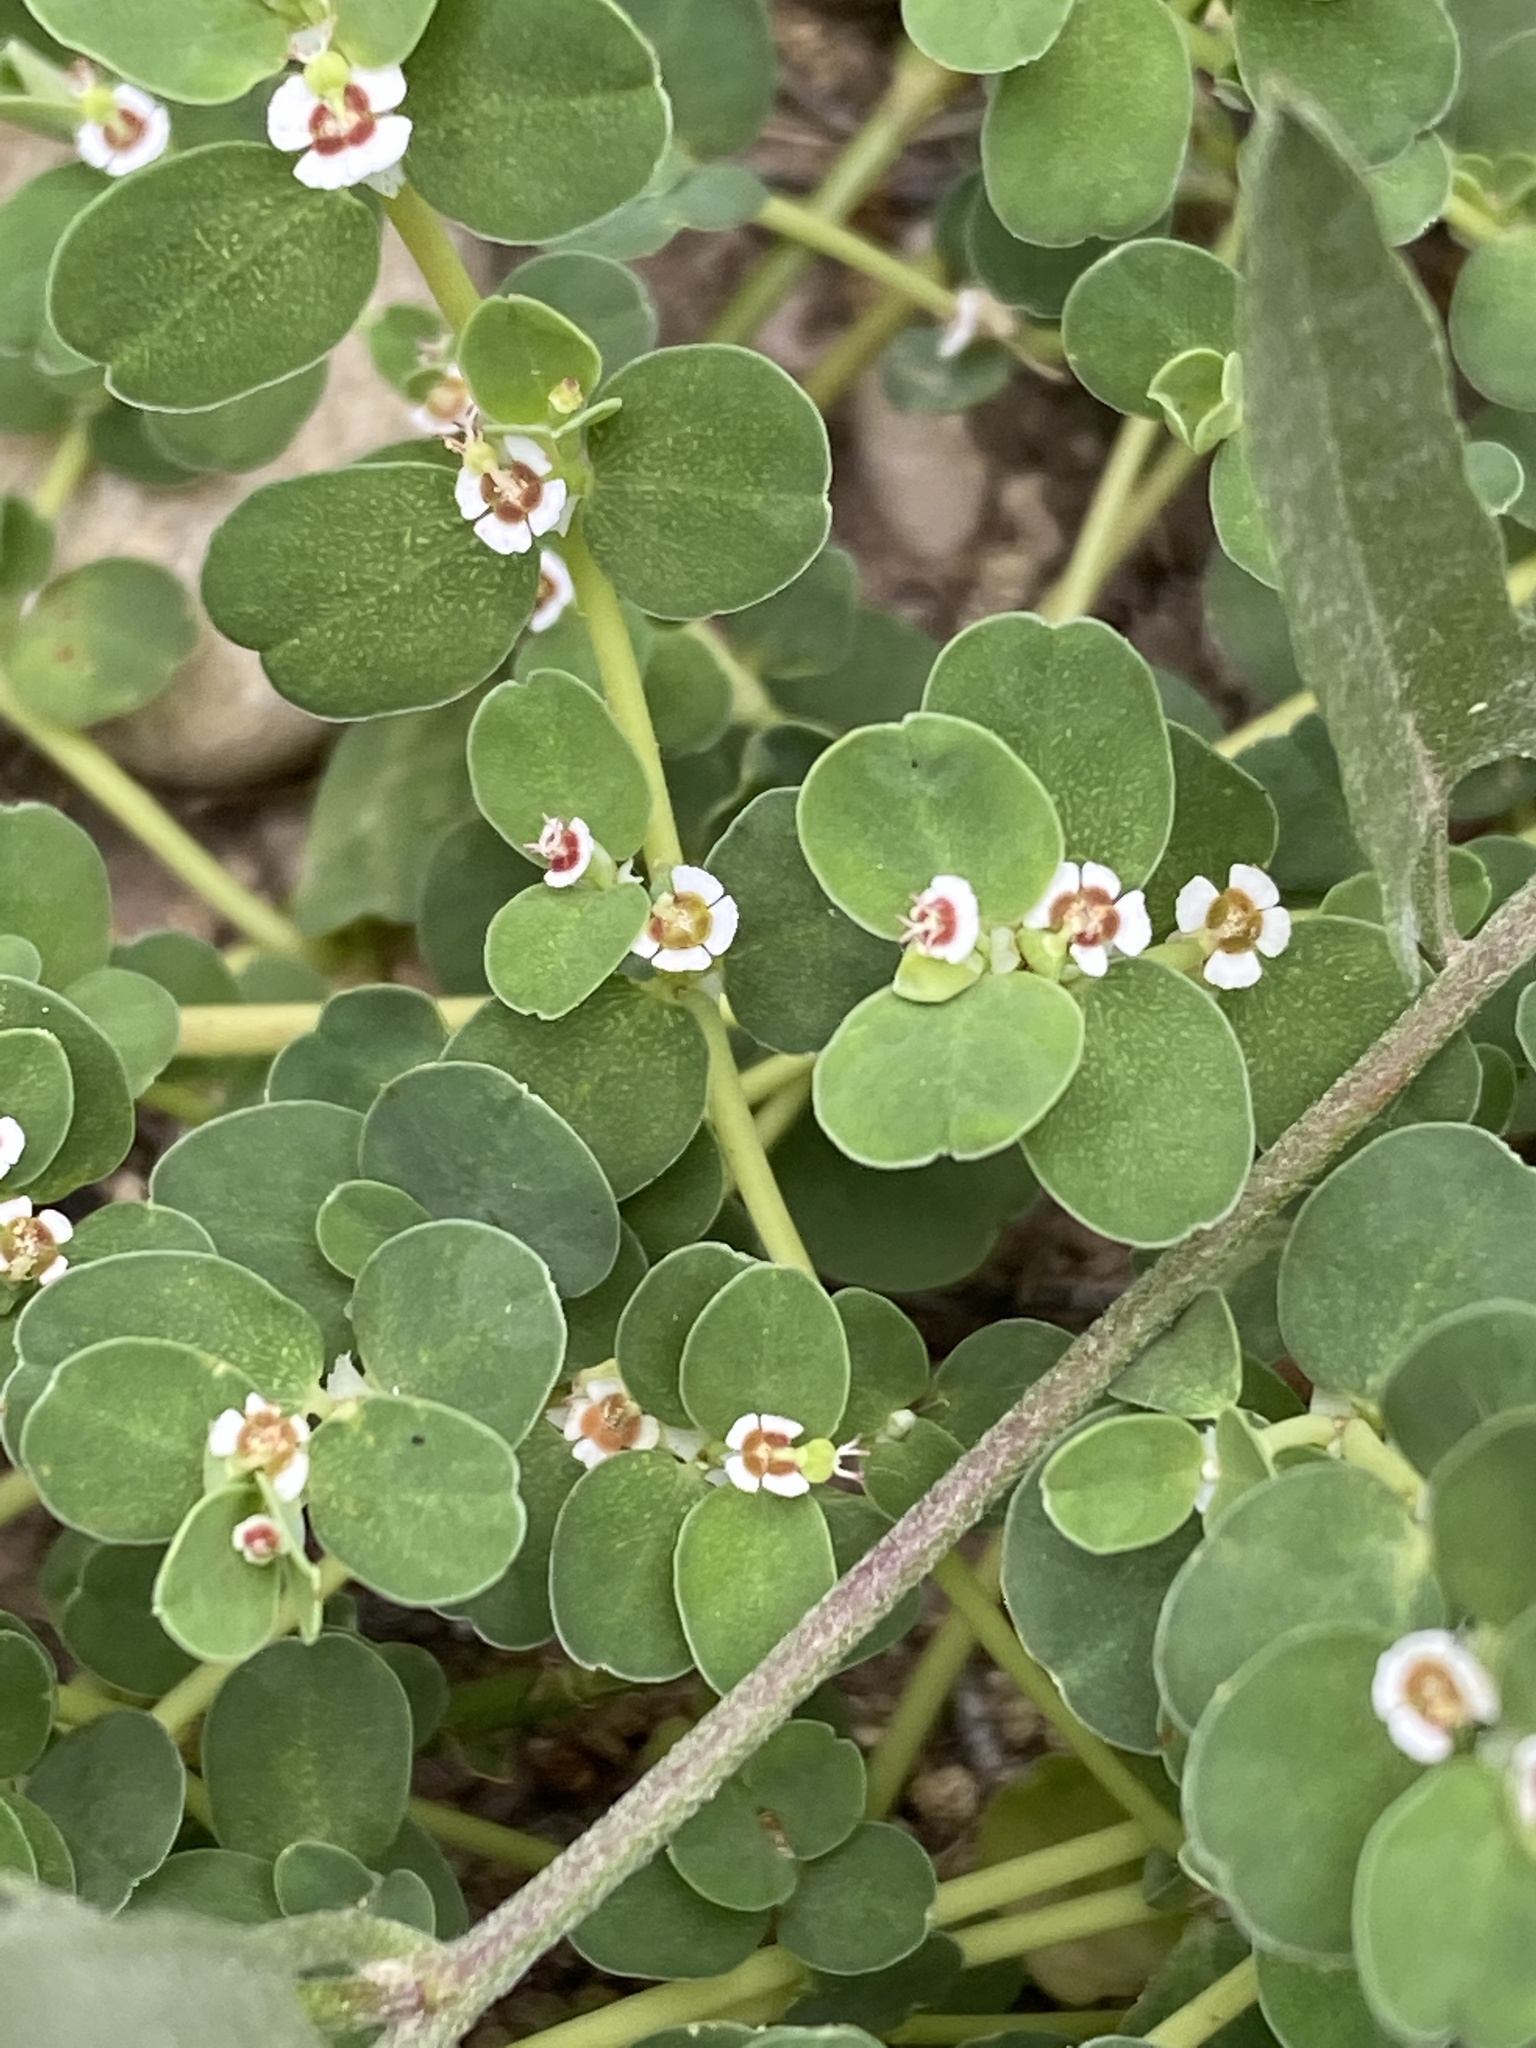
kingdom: Plantae
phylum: Tracheophyta
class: Magnoliopsida
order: Malpighiales
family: Euphorbiaceae
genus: Euphorbia
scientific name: Euphorbia albomarginata
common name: Whitemargin sandmat
